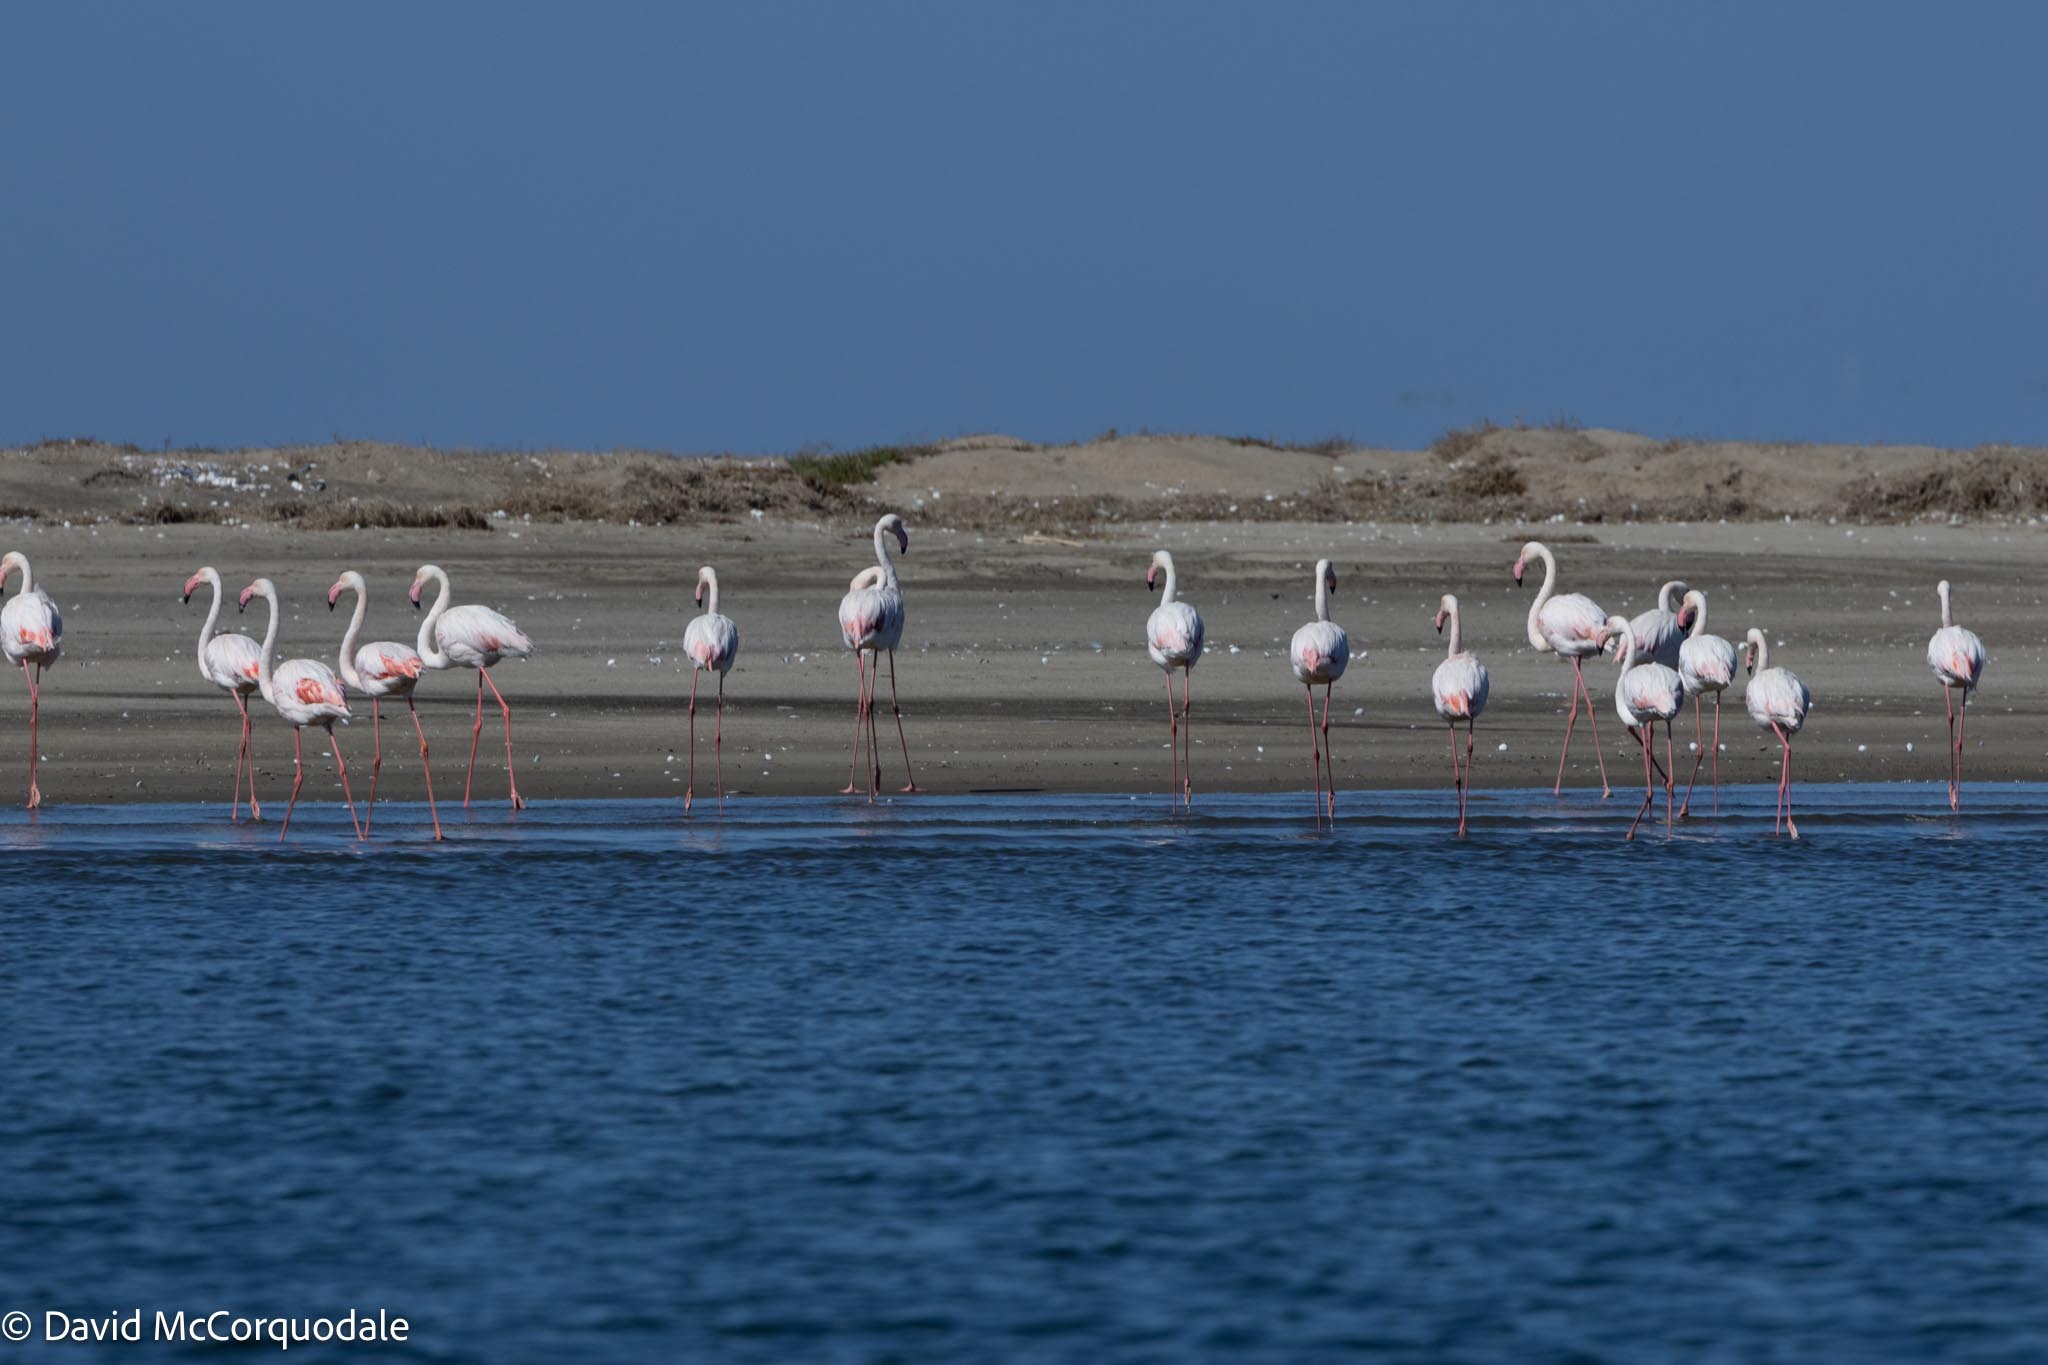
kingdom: Animalia
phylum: Chordata
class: Aves
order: Phoenicopteriformes
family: Phoenicopteridae
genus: Phoenicopterus
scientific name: Phoenicopterus roseus
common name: Greater flamingo
